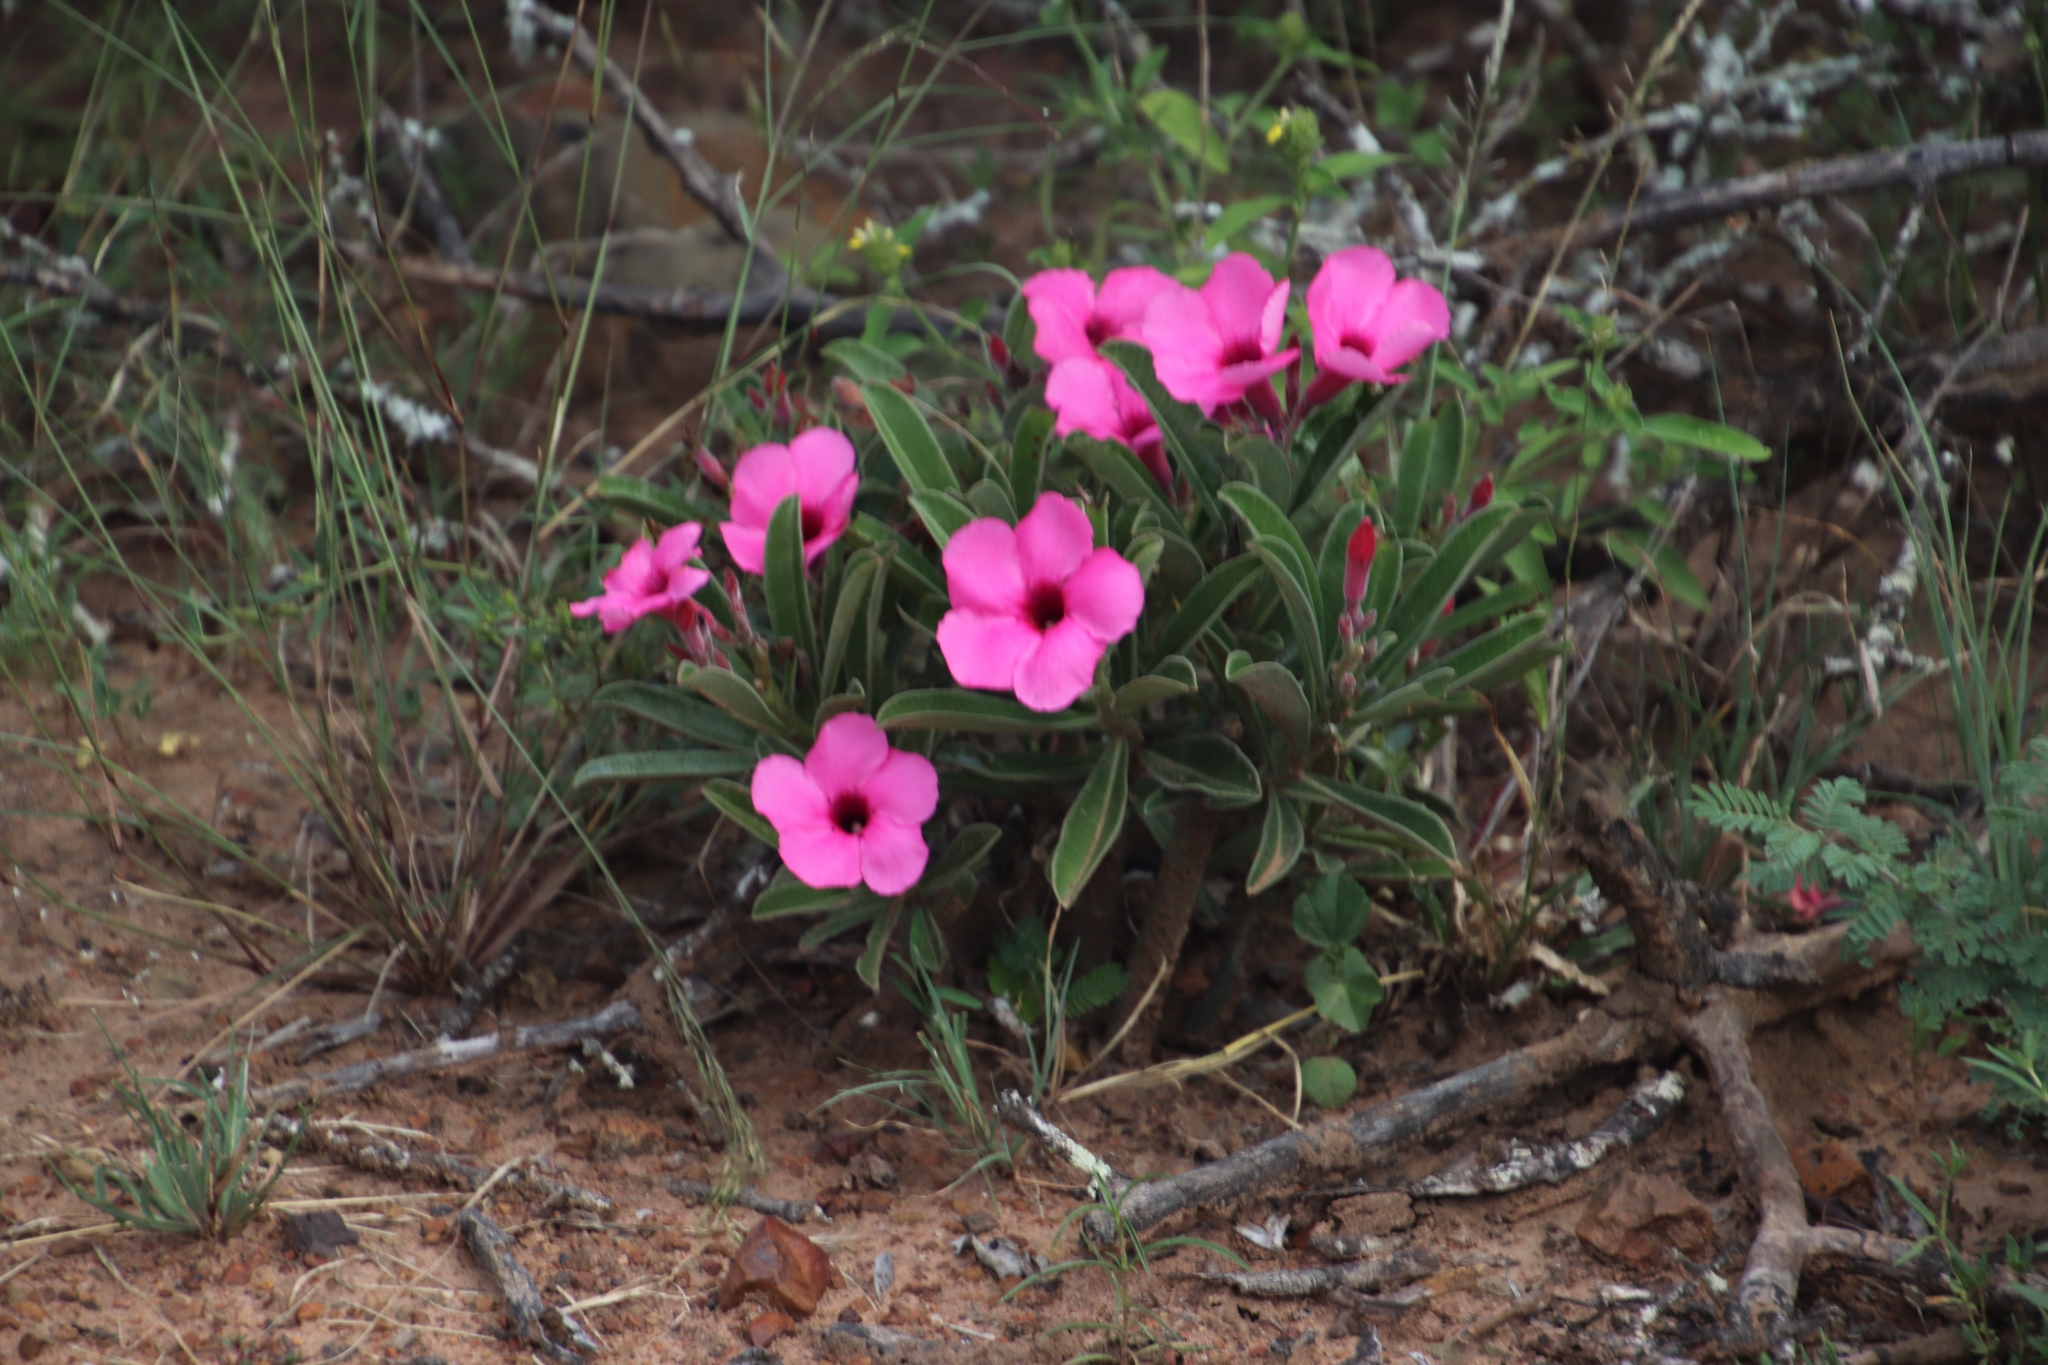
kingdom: Plantae
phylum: Tracheophyta
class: Magnoliopsida
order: Gentianales
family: Apocynaceae
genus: Adenium
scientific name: Adenium obesum
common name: Desert-rose
